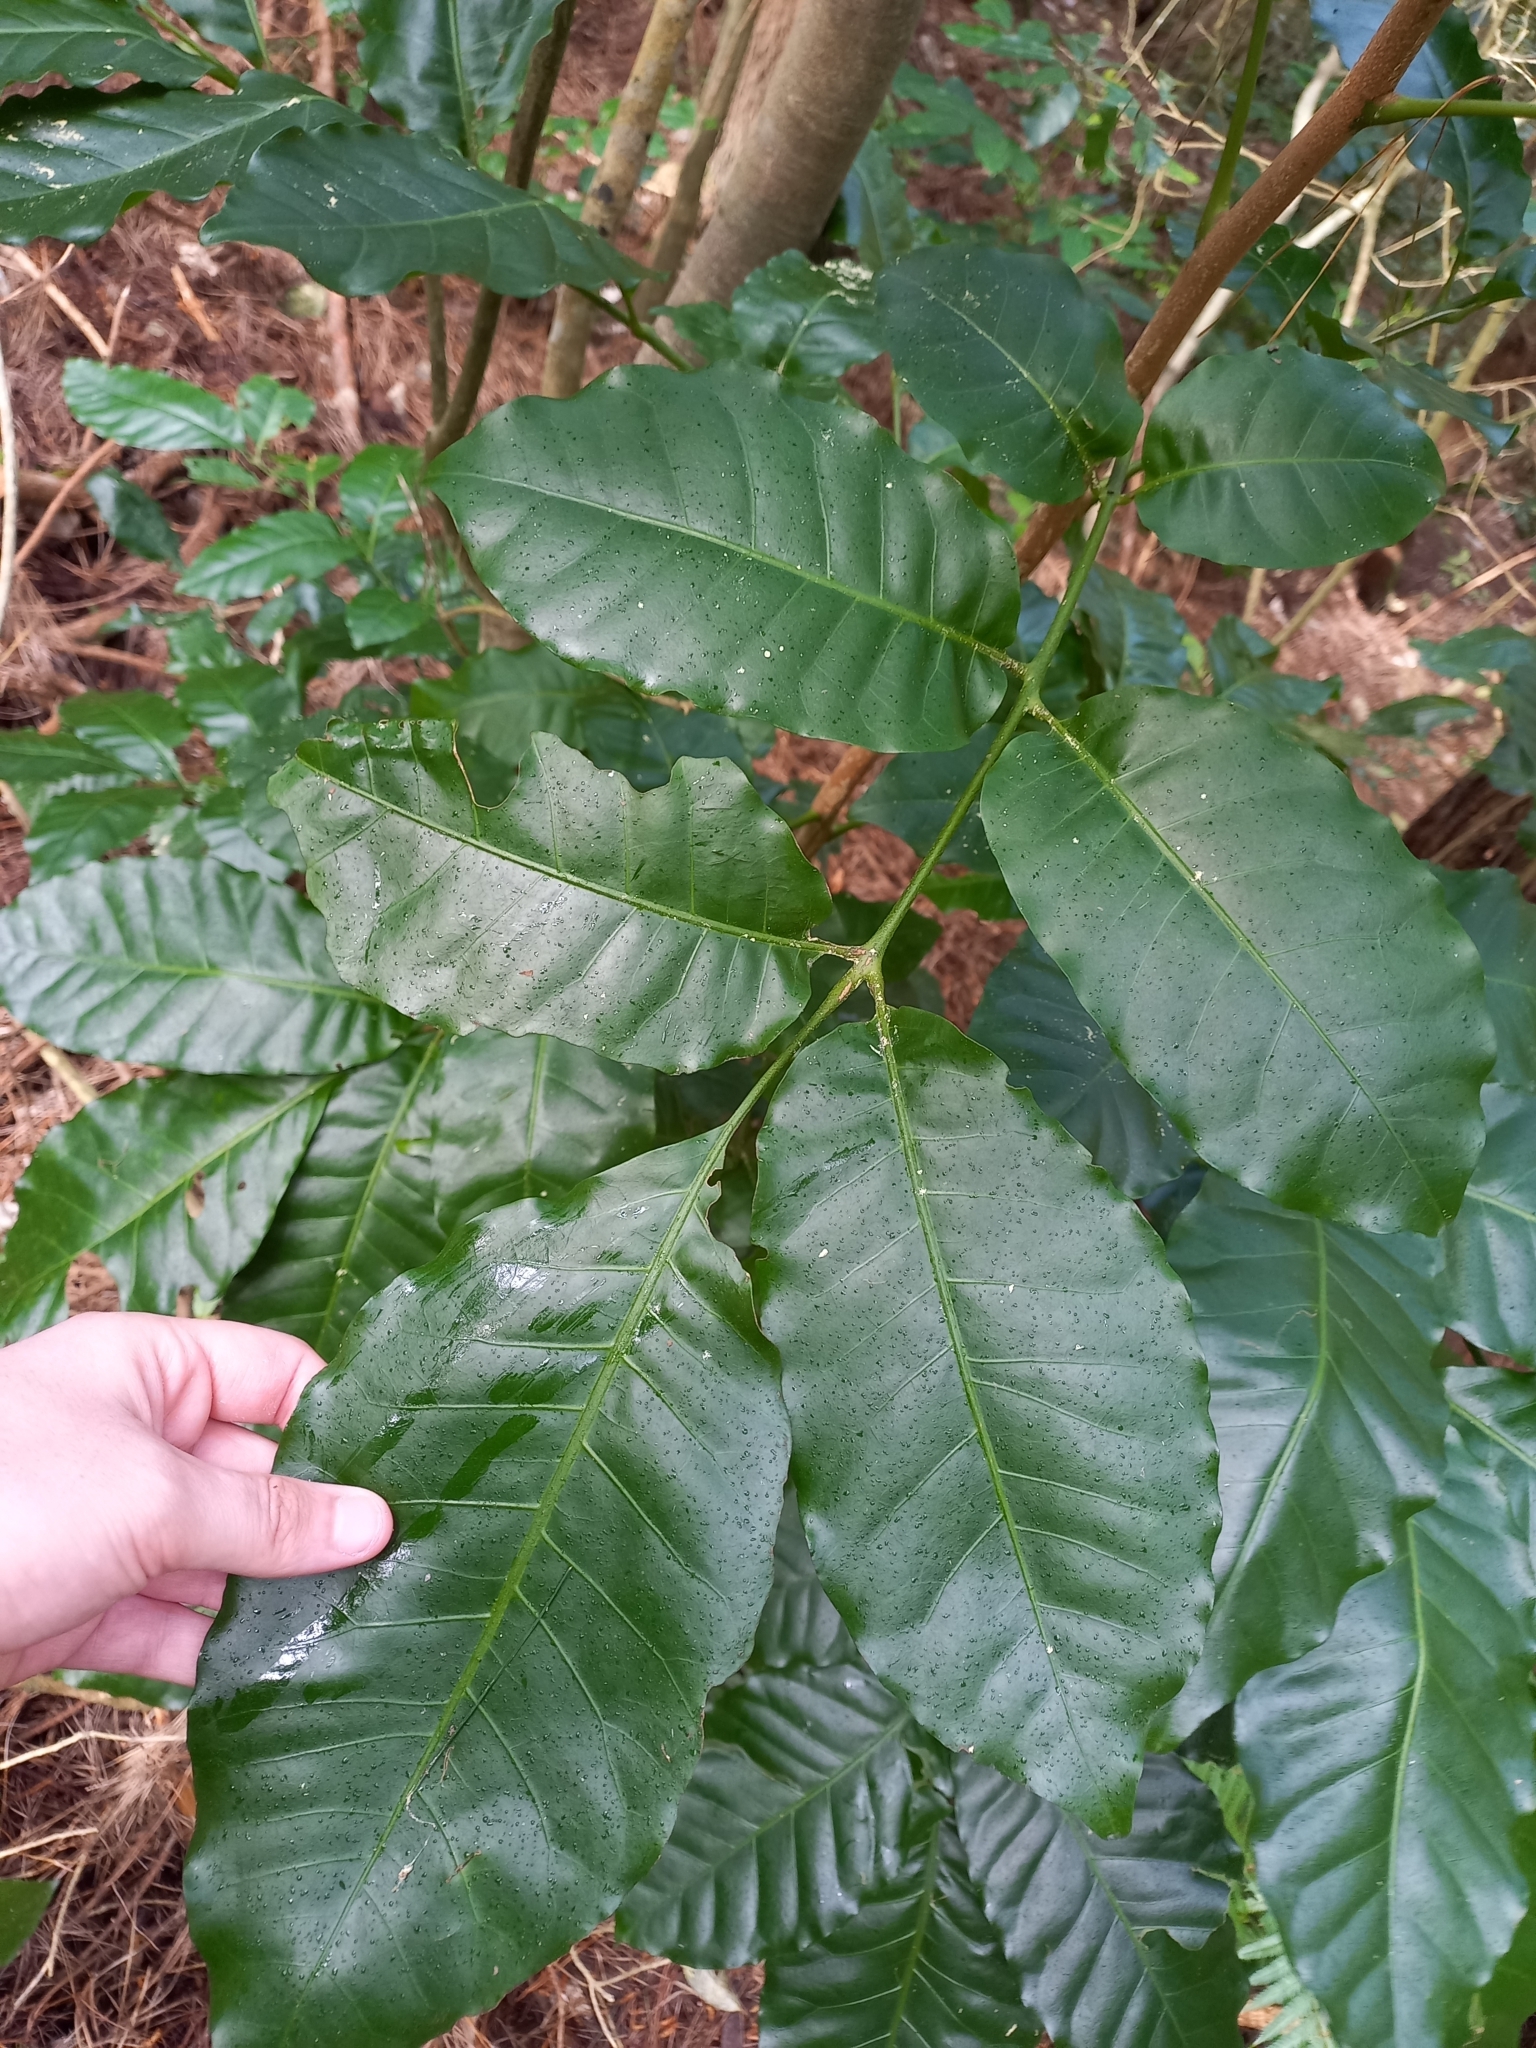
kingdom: Plantae
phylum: Tracheophyta
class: Magnoliopsida
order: Sapindales
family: Meliaceae
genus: Didymocheton
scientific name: Didymocheton spectabilis
